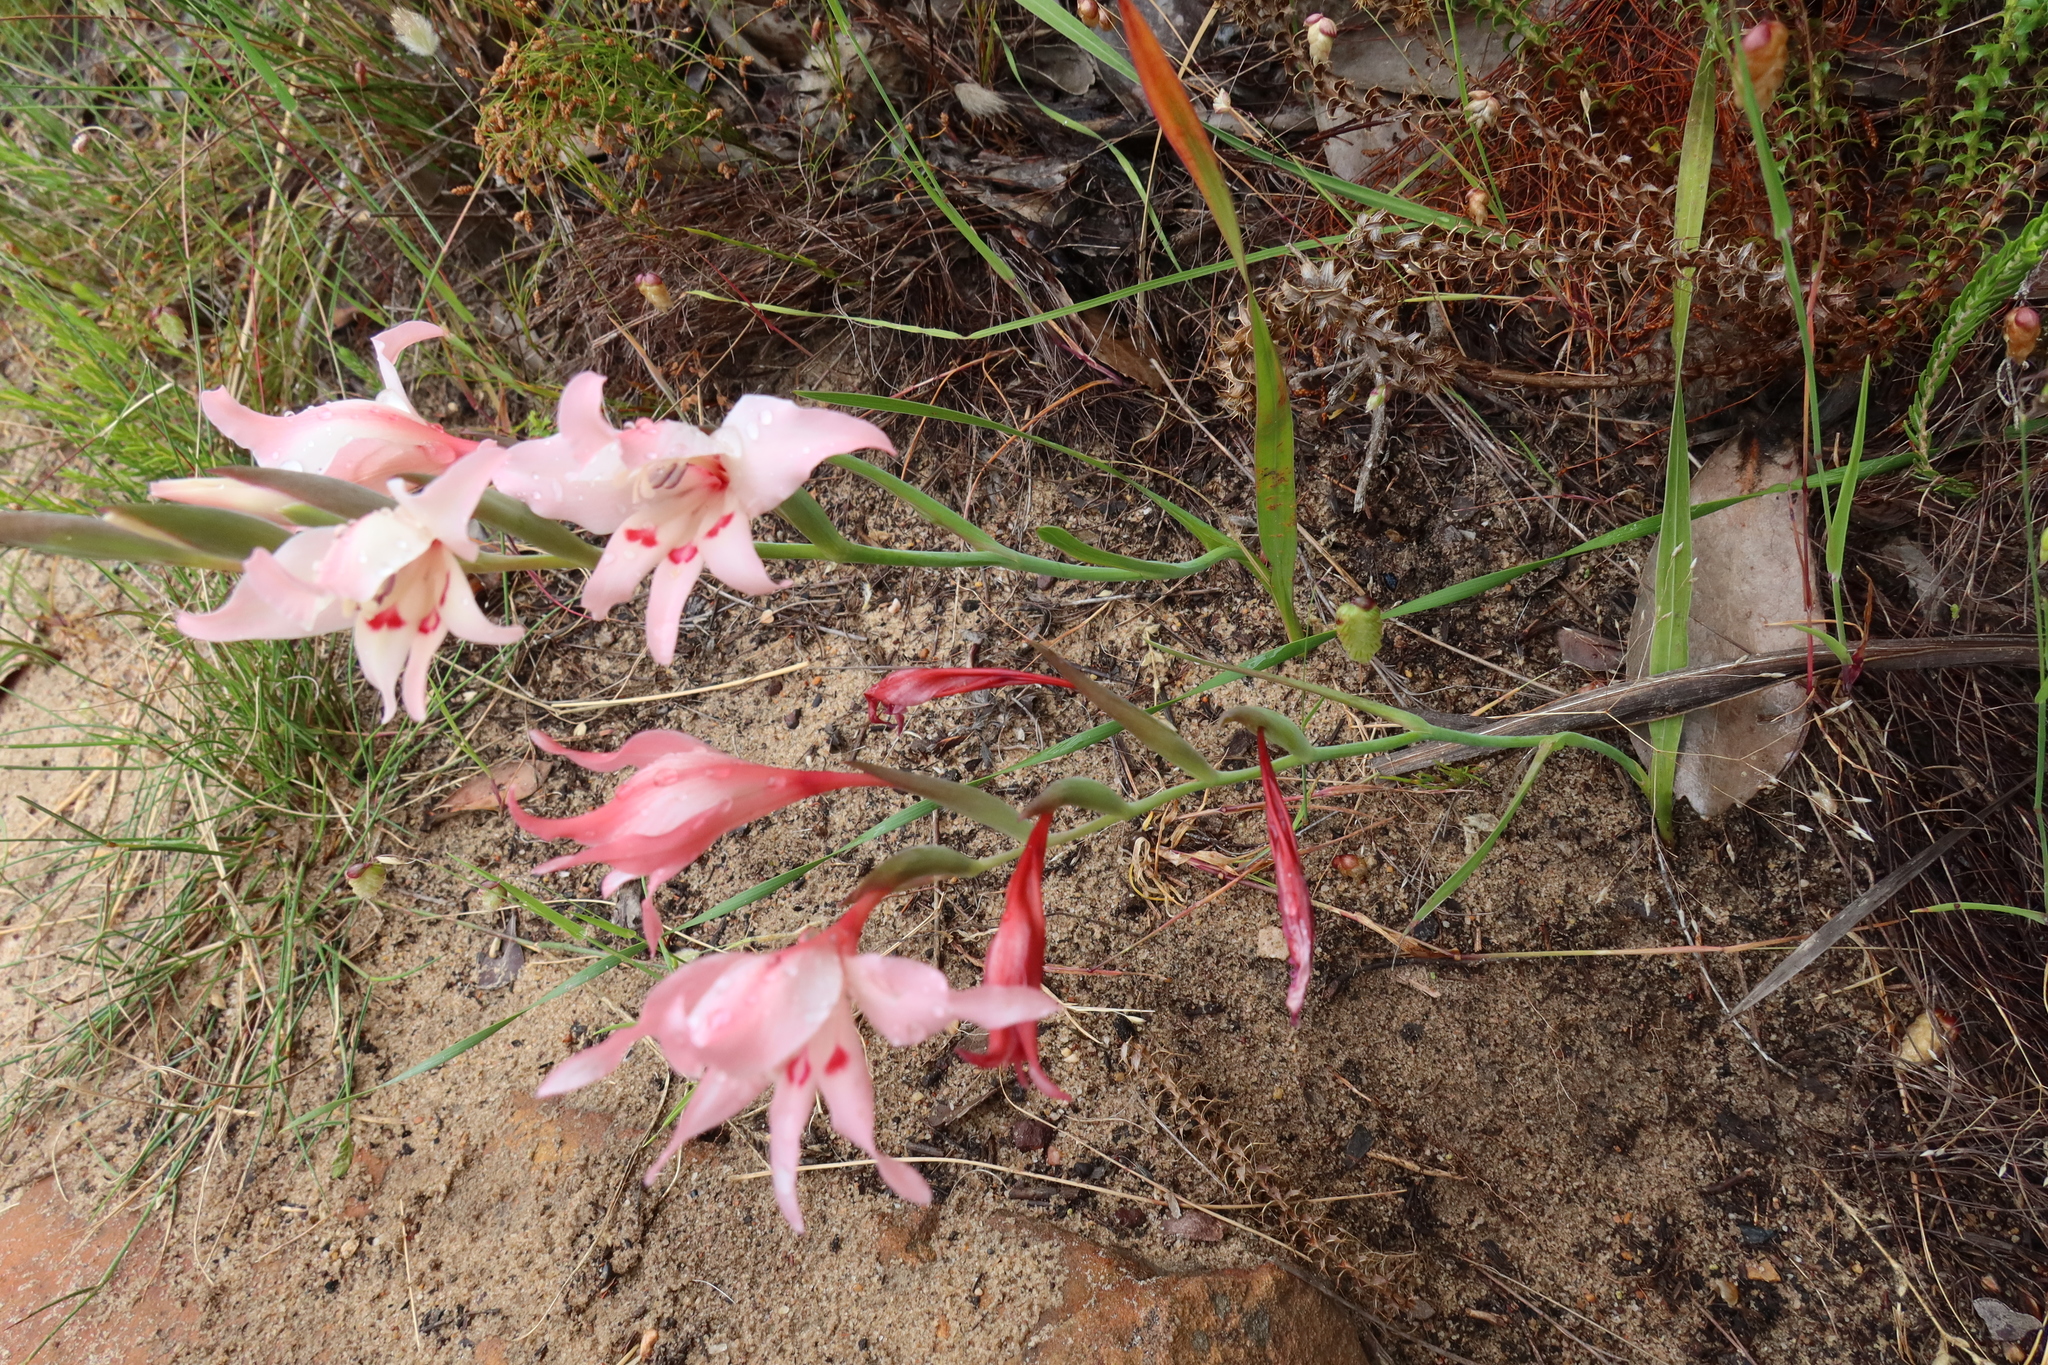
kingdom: Plantae
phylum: Tracheophyta
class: Liliopsida
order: Asparagales
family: Iridaceae
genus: Gladiolus
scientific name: Gladiolus carneus
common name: Painted-lady
